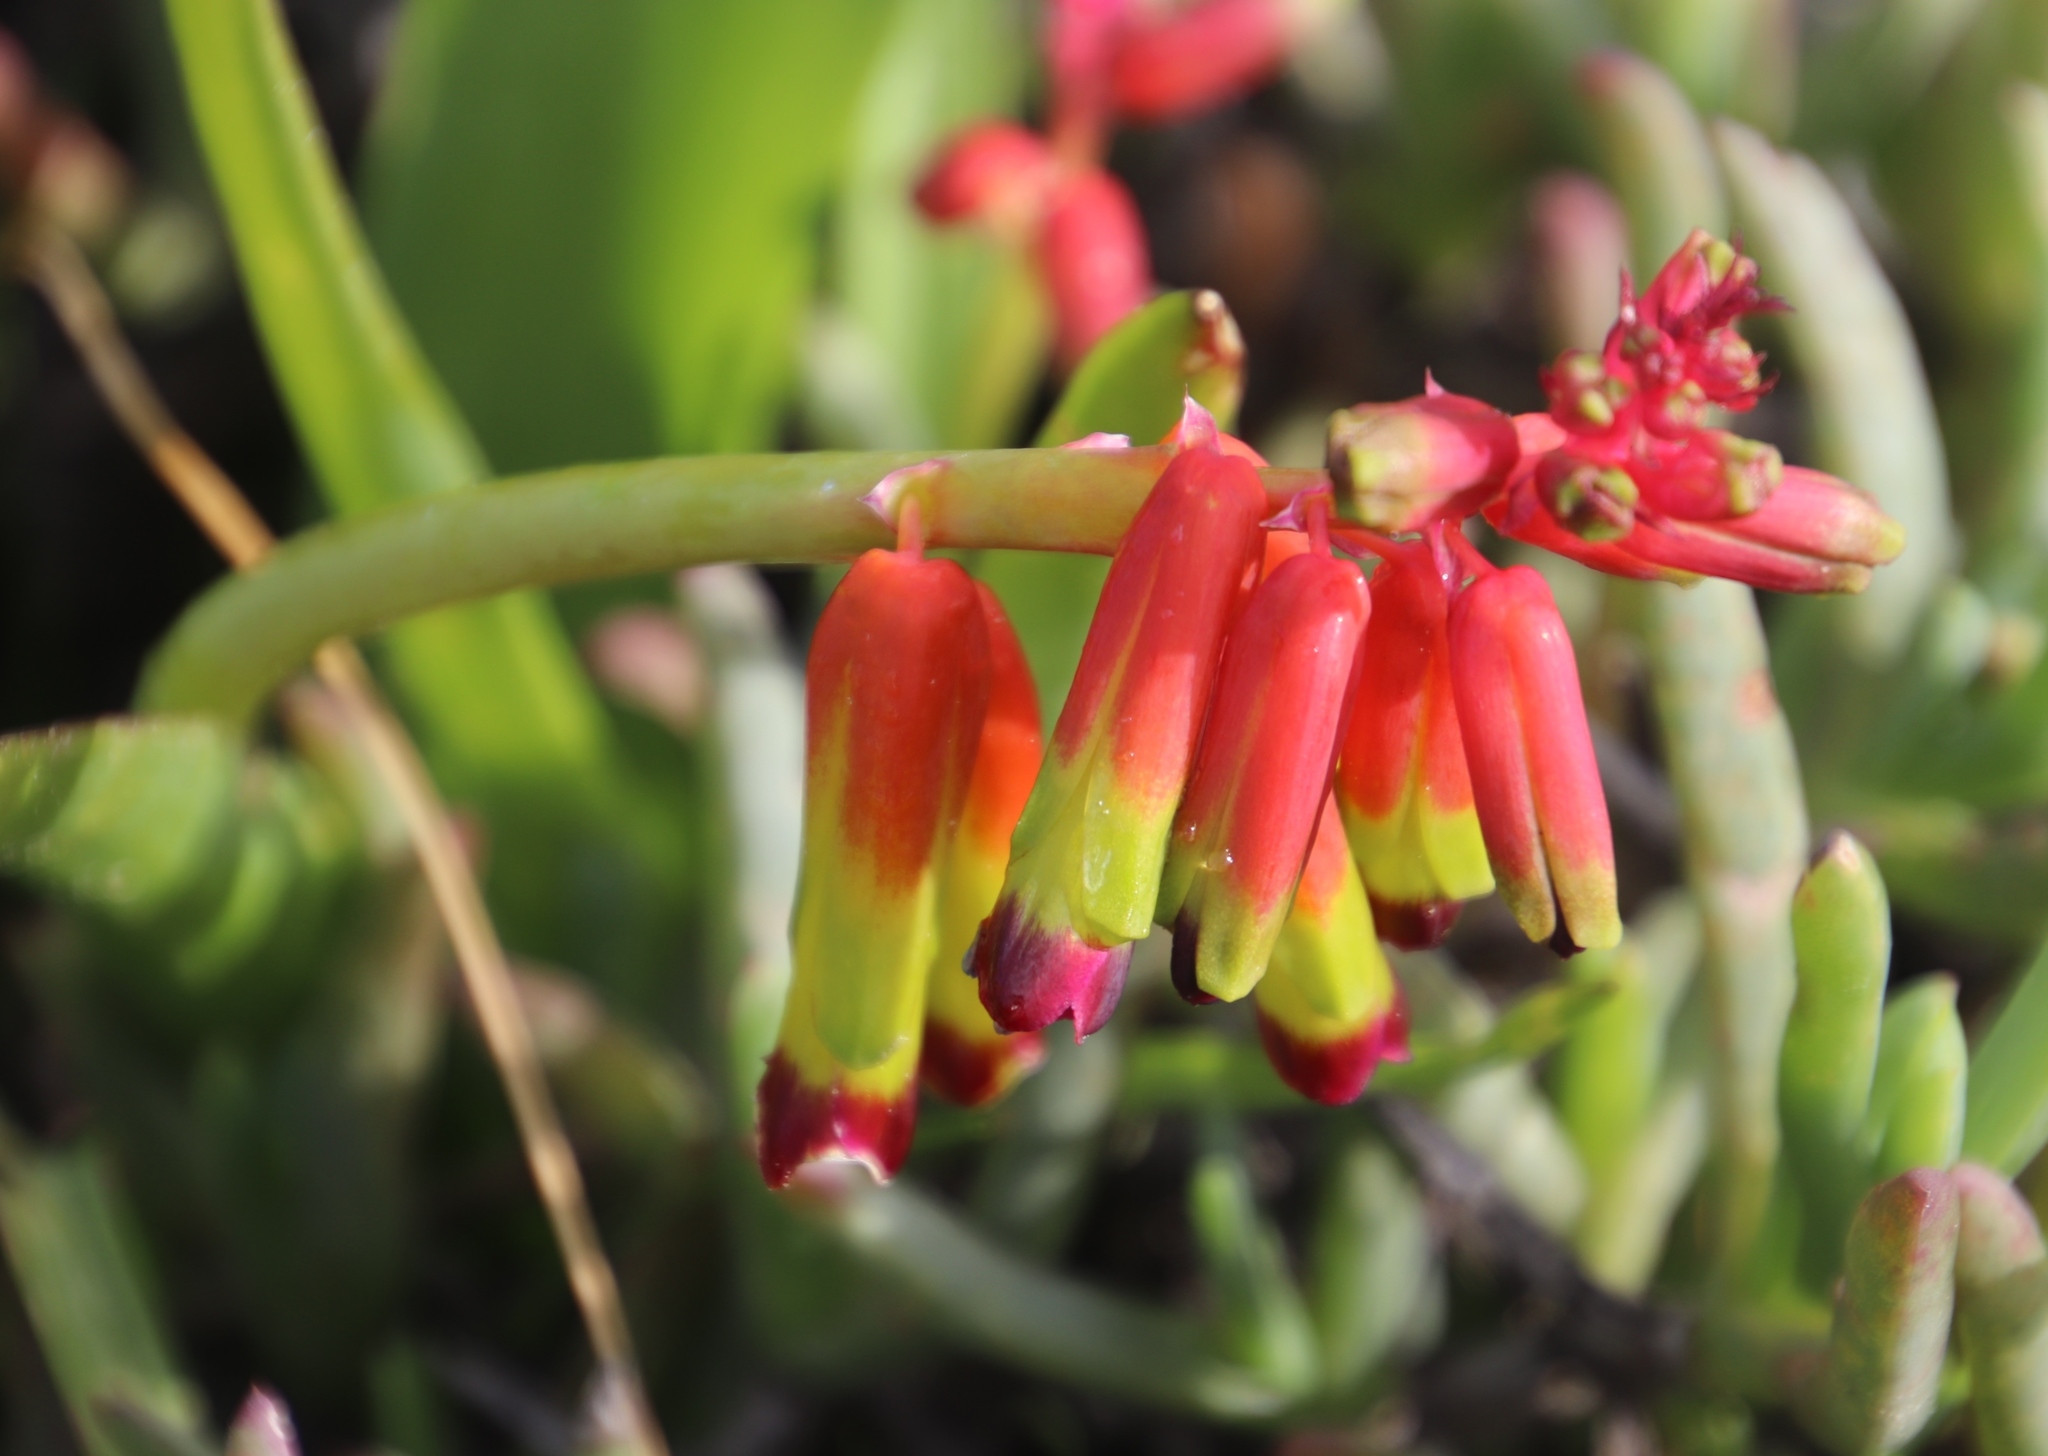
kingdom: Plantae
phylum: Tracheophyta
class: Liliopsida
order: Asparagales
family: Asparagaceae
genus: Lachenalia
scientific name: Lachenalia quadricolor
